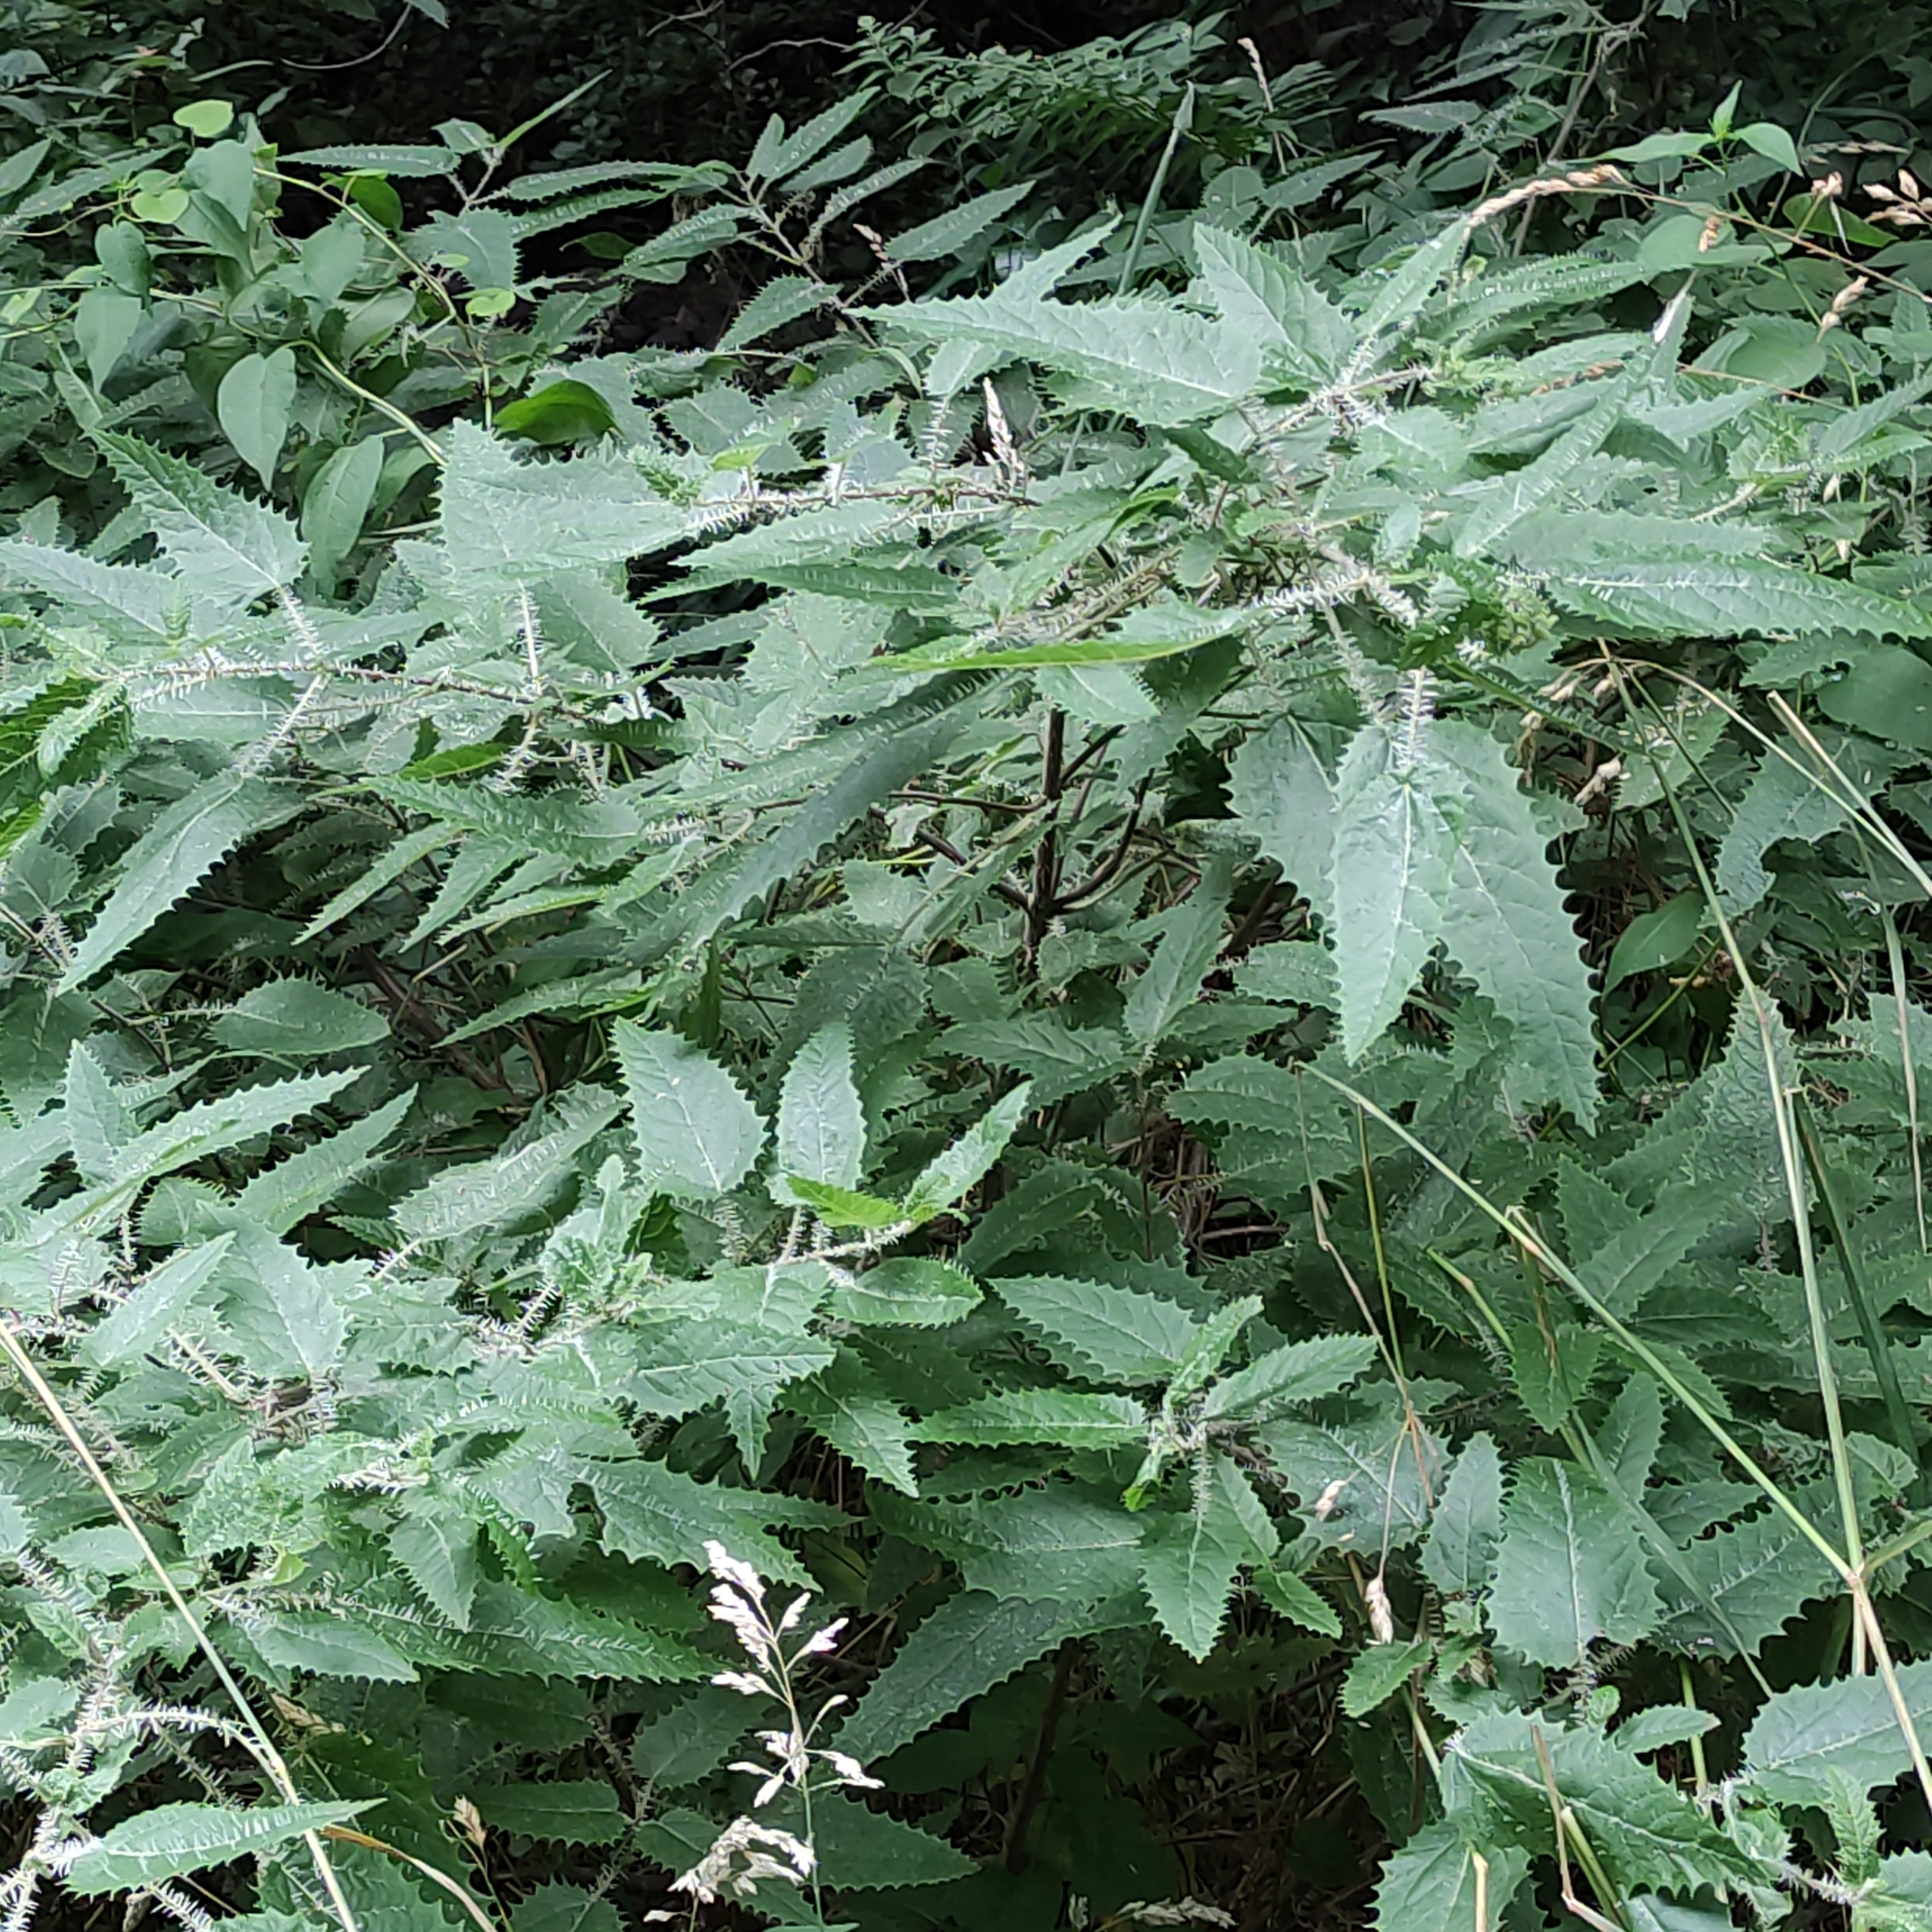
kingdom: Plantae
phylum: Tracheophyta
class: Magnoliopsida
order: Rosales
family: Urticaceae
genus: Urtica
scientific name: Urtica ferox
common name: Tree nettle
